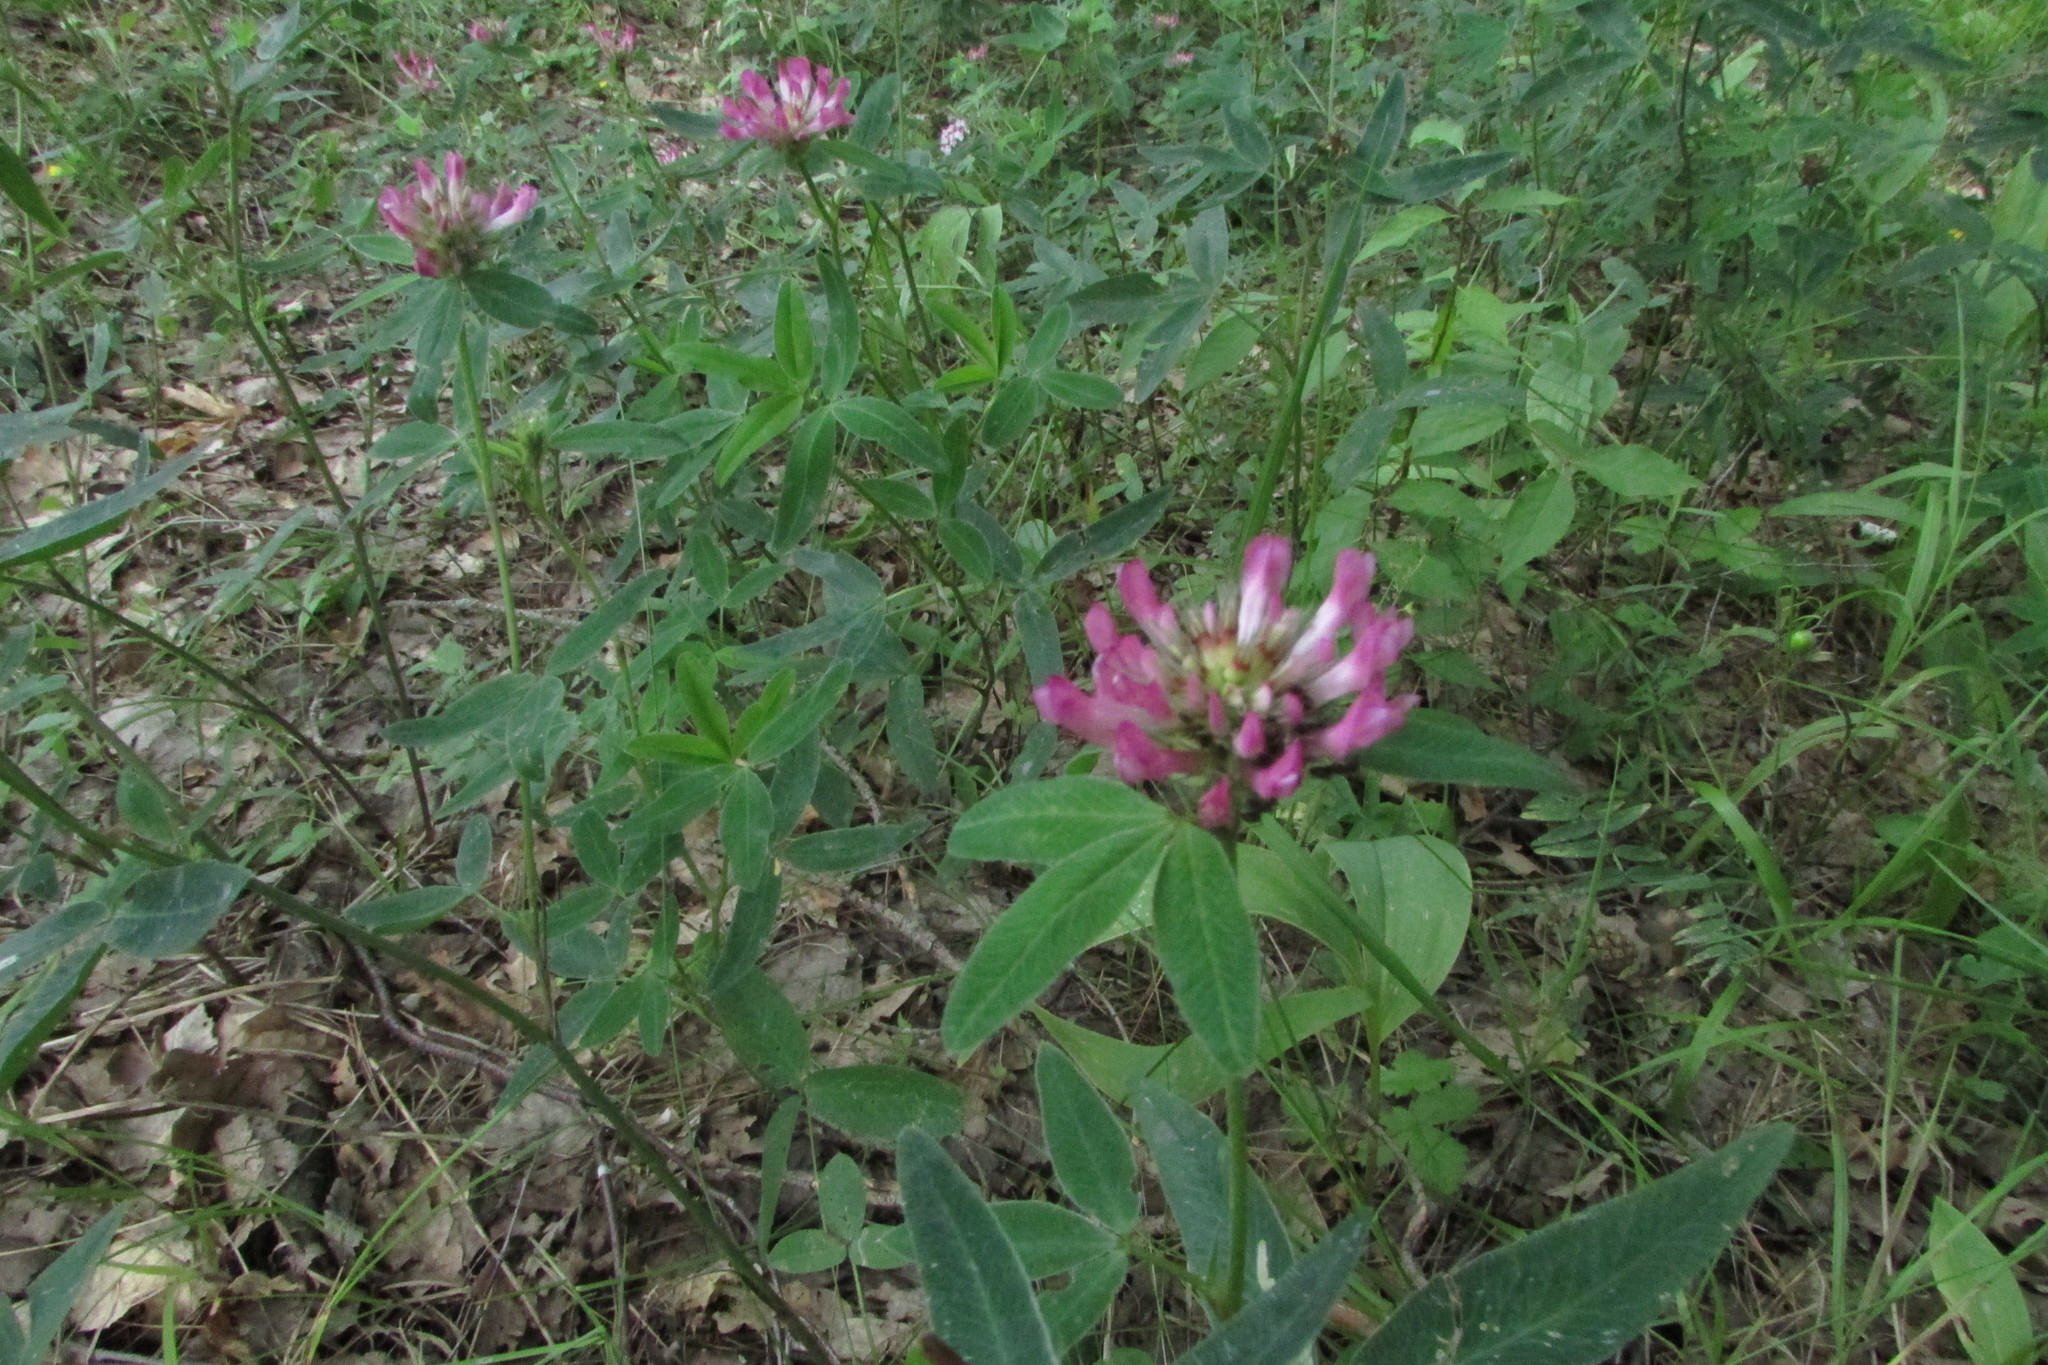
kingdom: Plantae
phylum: Tracheophyta
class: Magnoliopsida
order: Fabales
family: Fabaceae
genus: Trifolium
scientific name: Trifolium medium
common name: Zigzag clover
